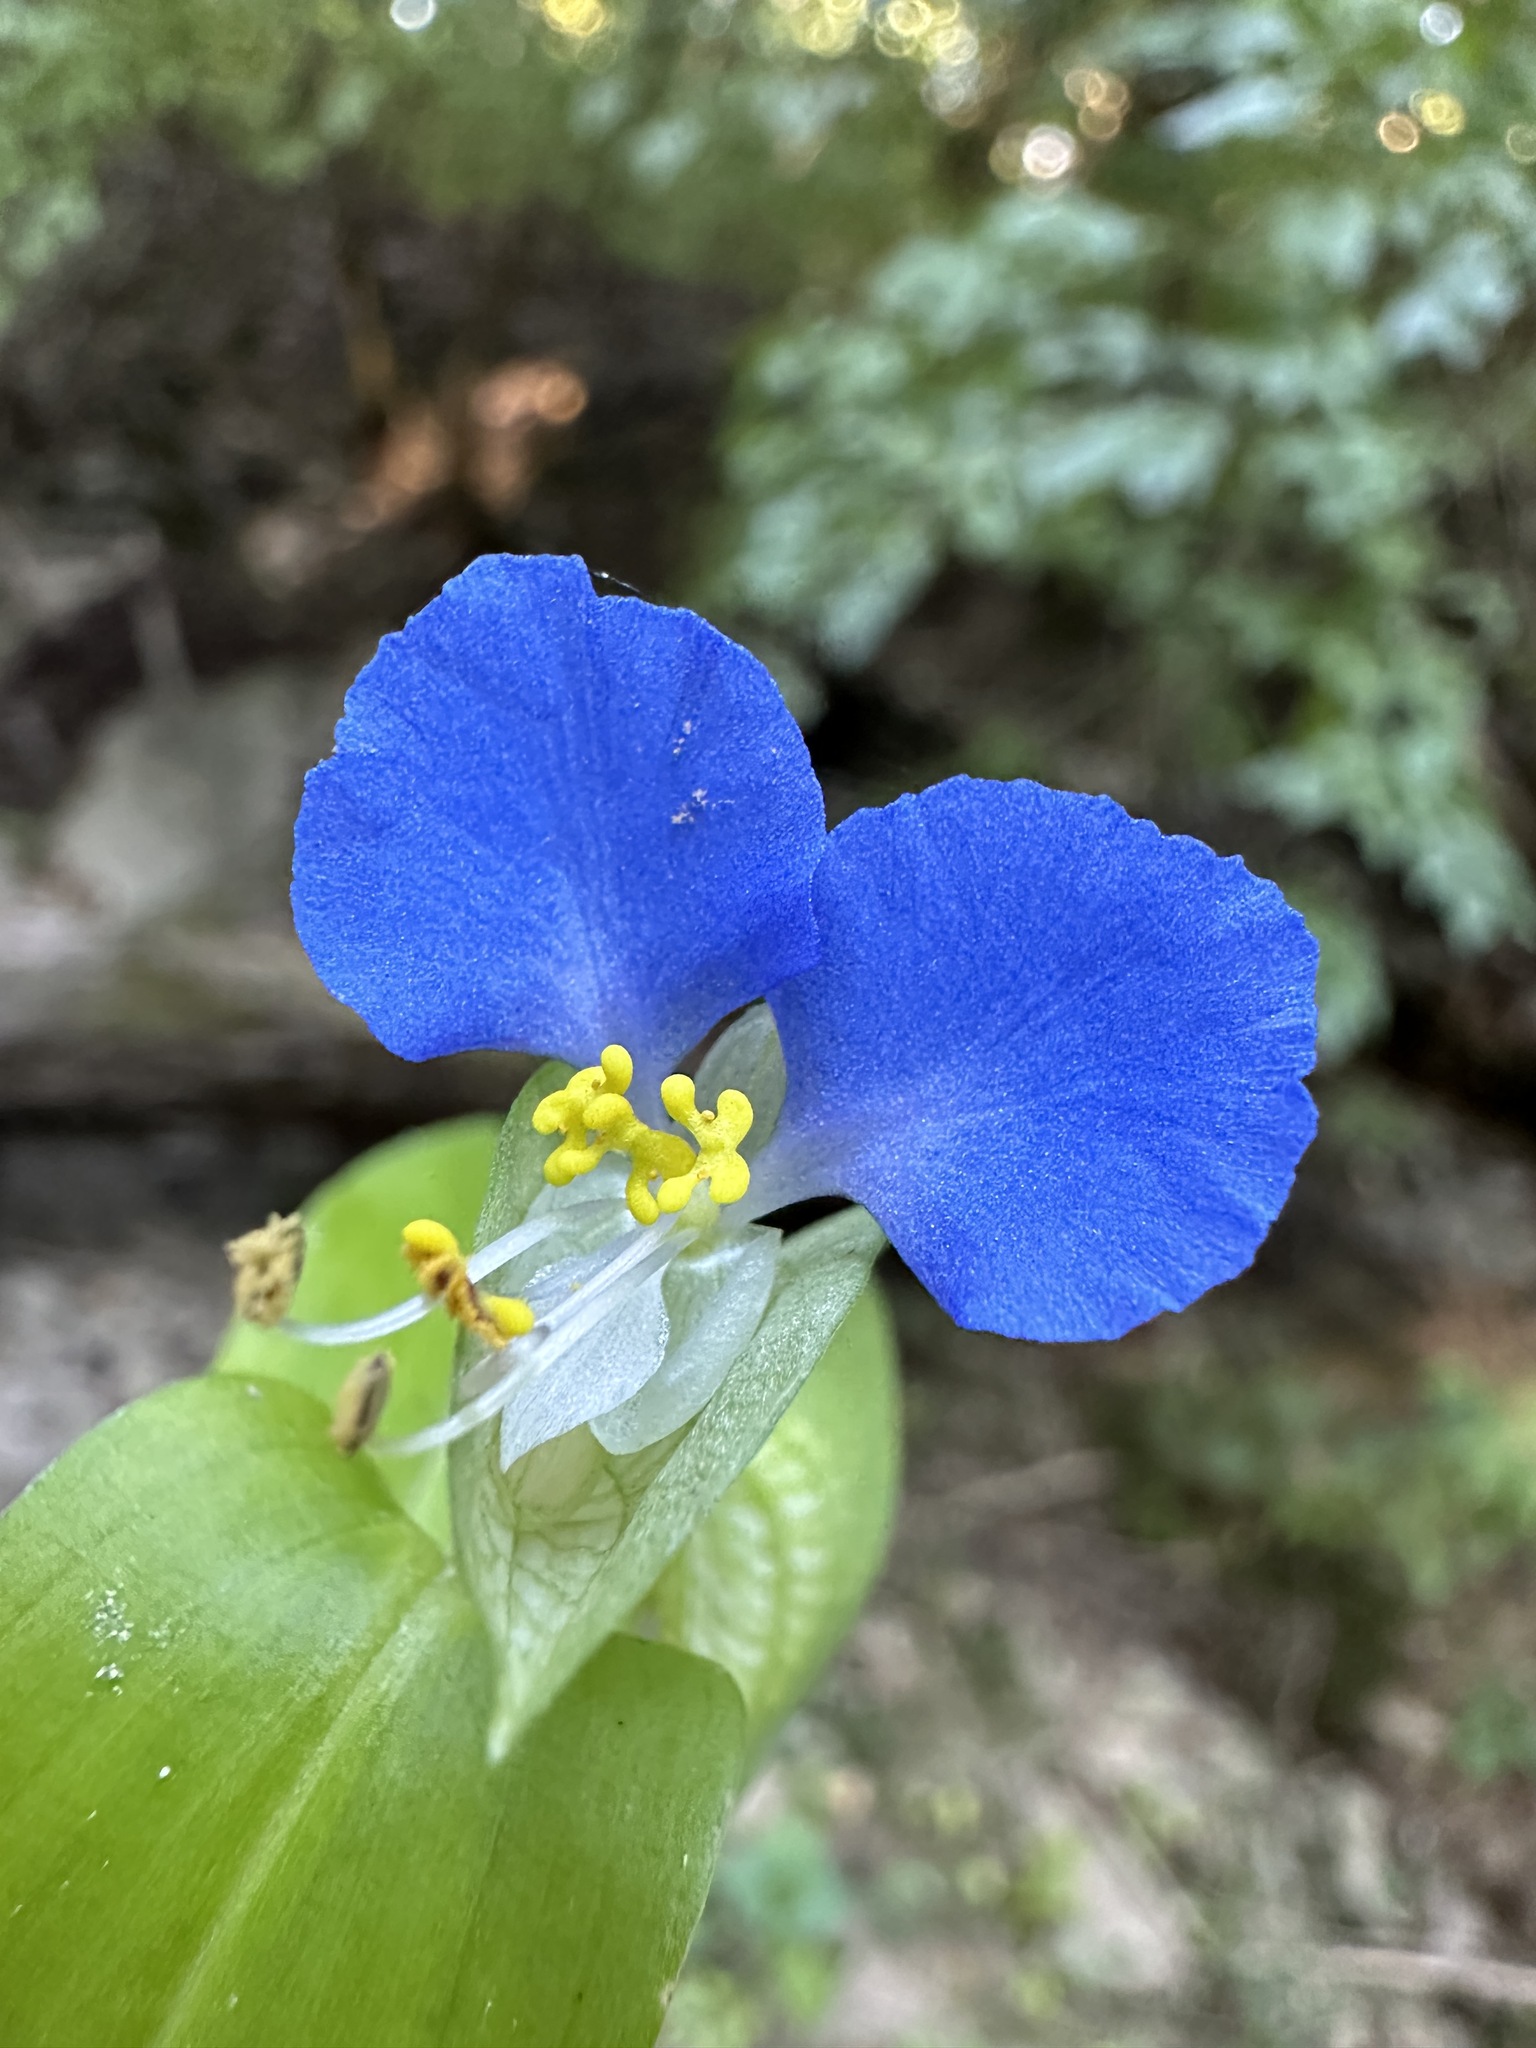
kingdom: Plantae
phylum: Tracheophyta
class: Liliopsida
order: Commelinales
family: Commelinaceae
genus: Commelina
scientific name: Commelina communis
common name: Asiatic dayflower
